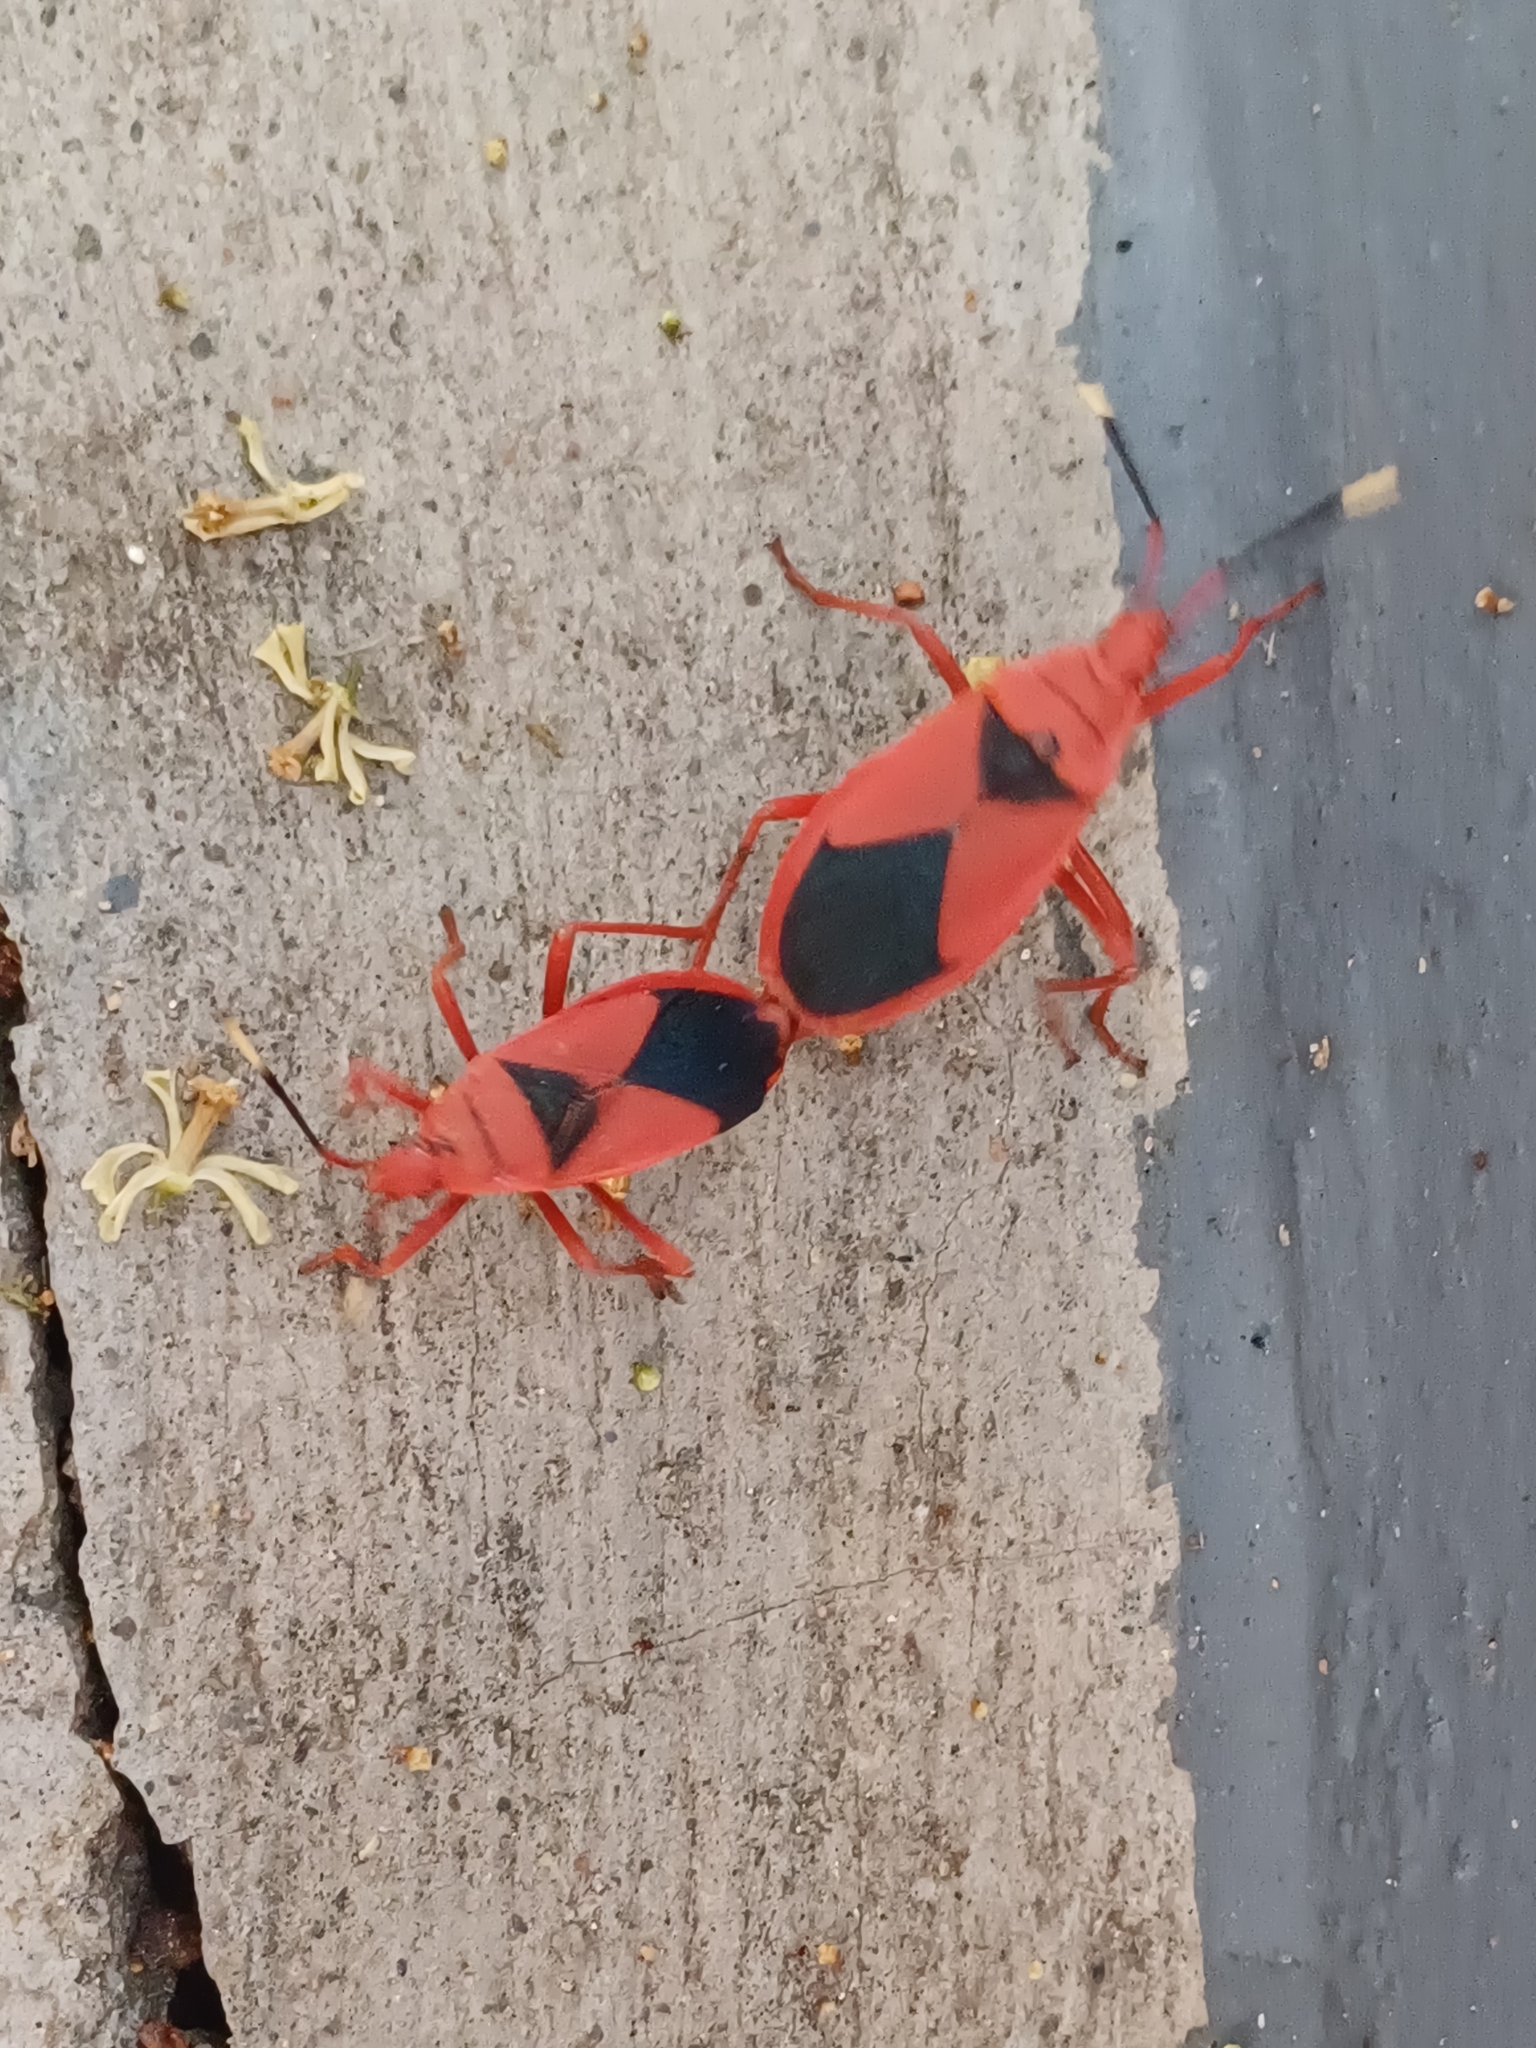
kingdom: Animalia
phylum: Arthropoda
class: Insecta
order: Hemiptera
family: Pyrrhocoridae
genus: Probergrothius
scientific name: Probergrothius
